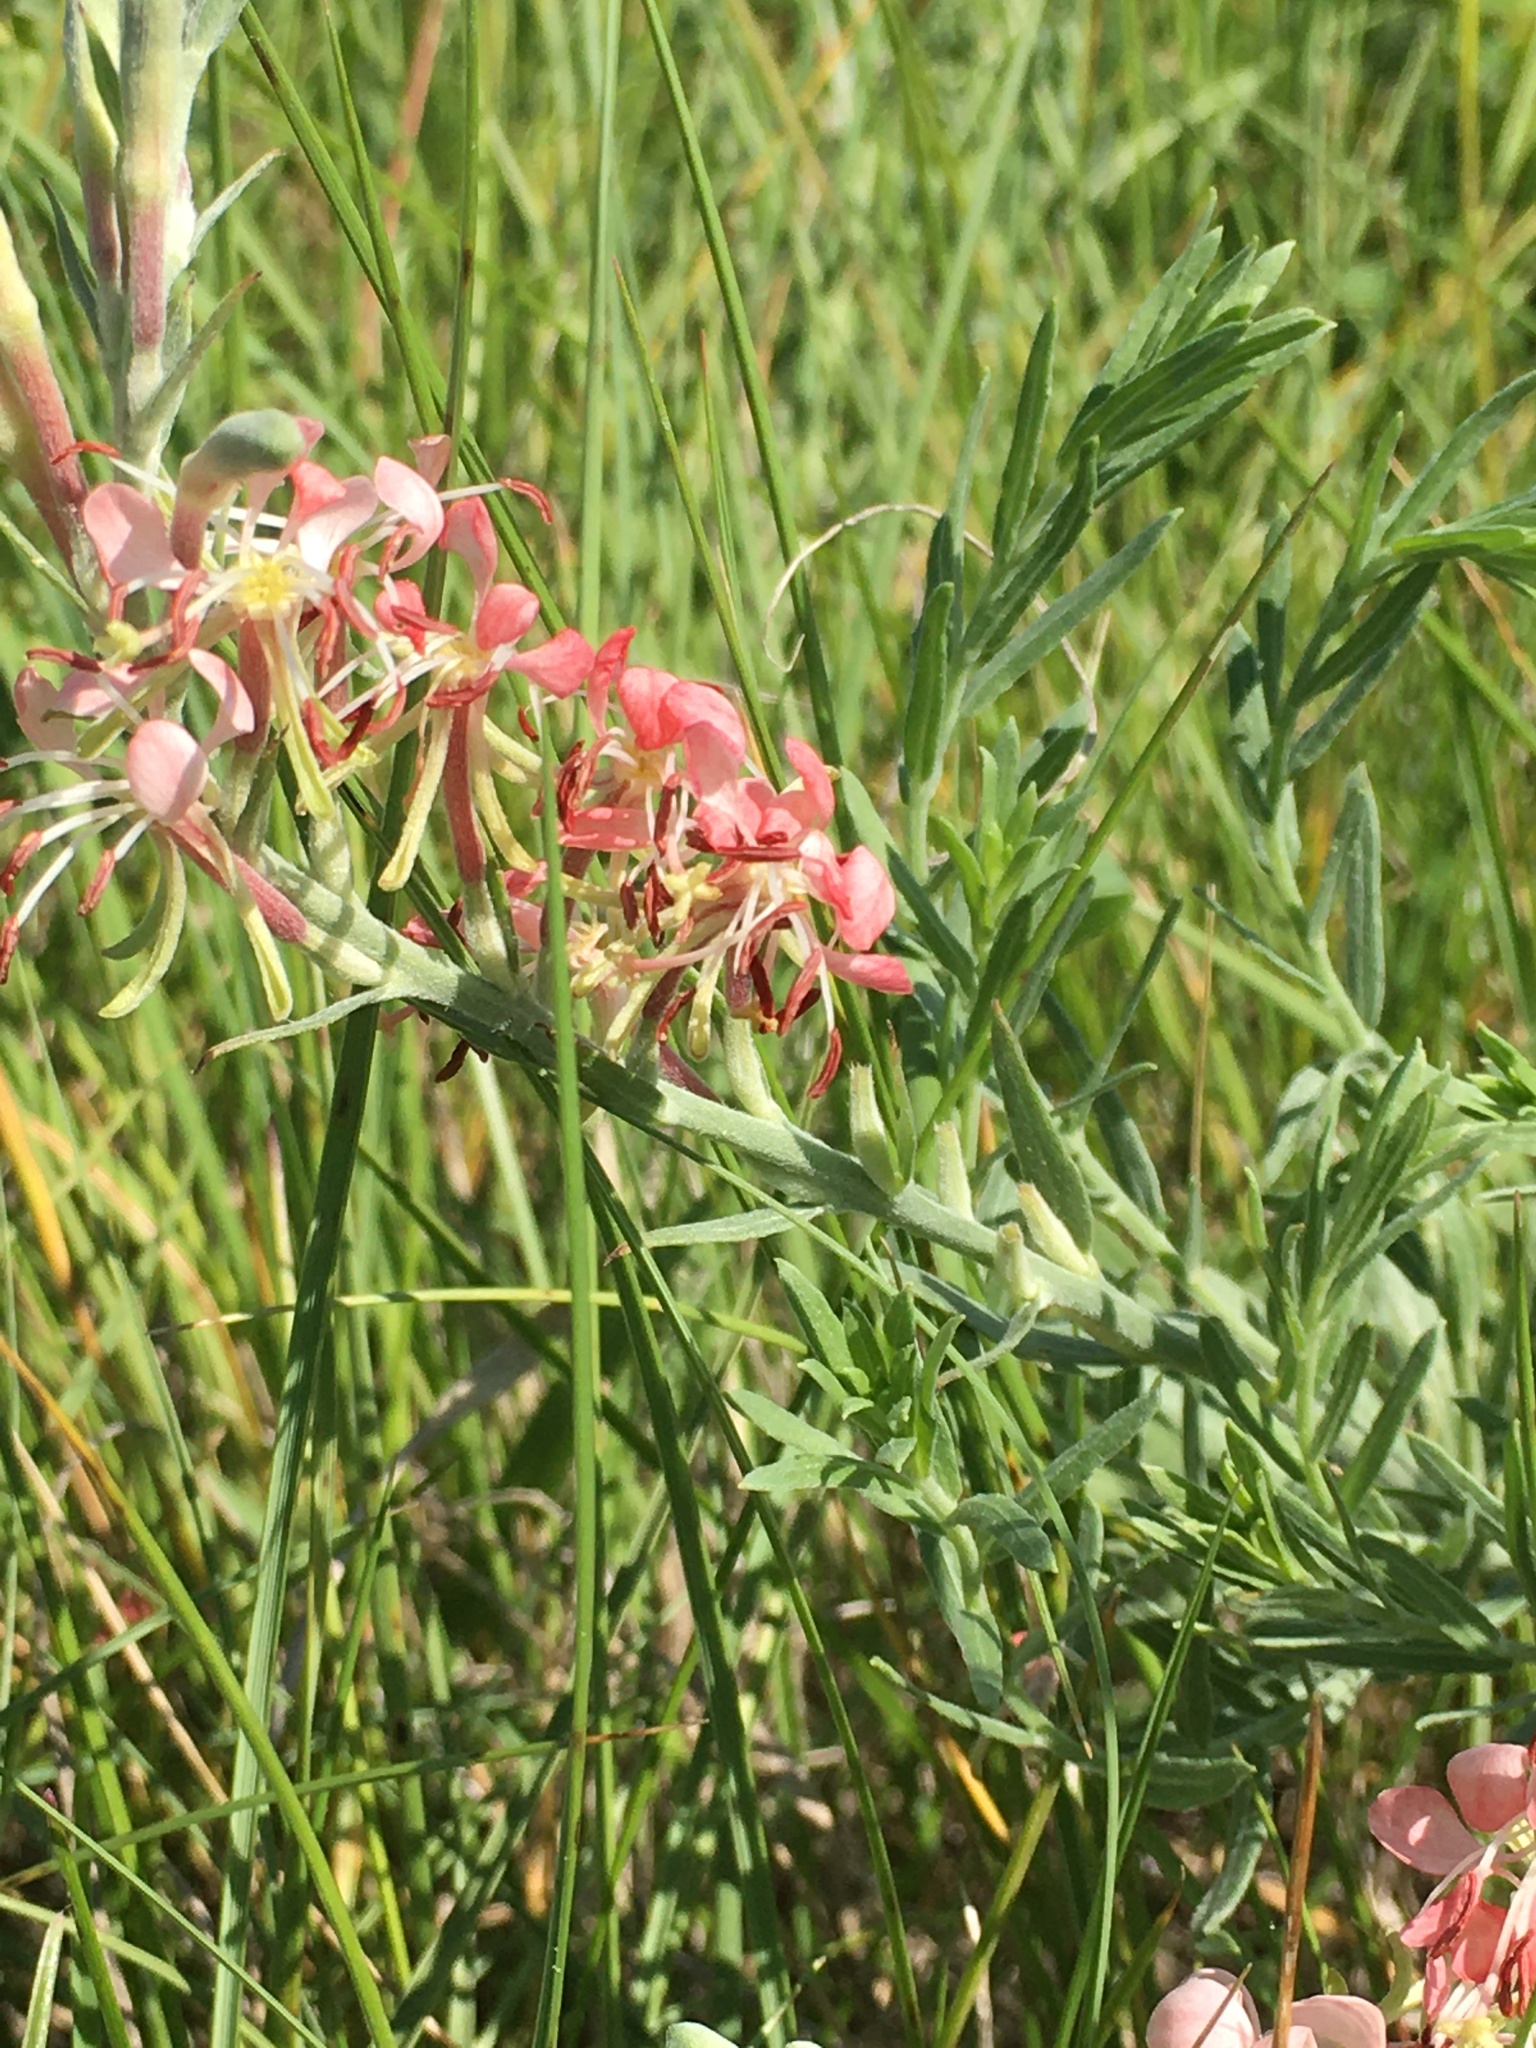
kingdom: Plantae
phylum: Tracheophyta
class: Magnoliopsida
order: Myrtales
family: Onagraceae
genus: Oenothera
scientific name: Oenothera suffrutescens
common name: Scarlet beeblossom
